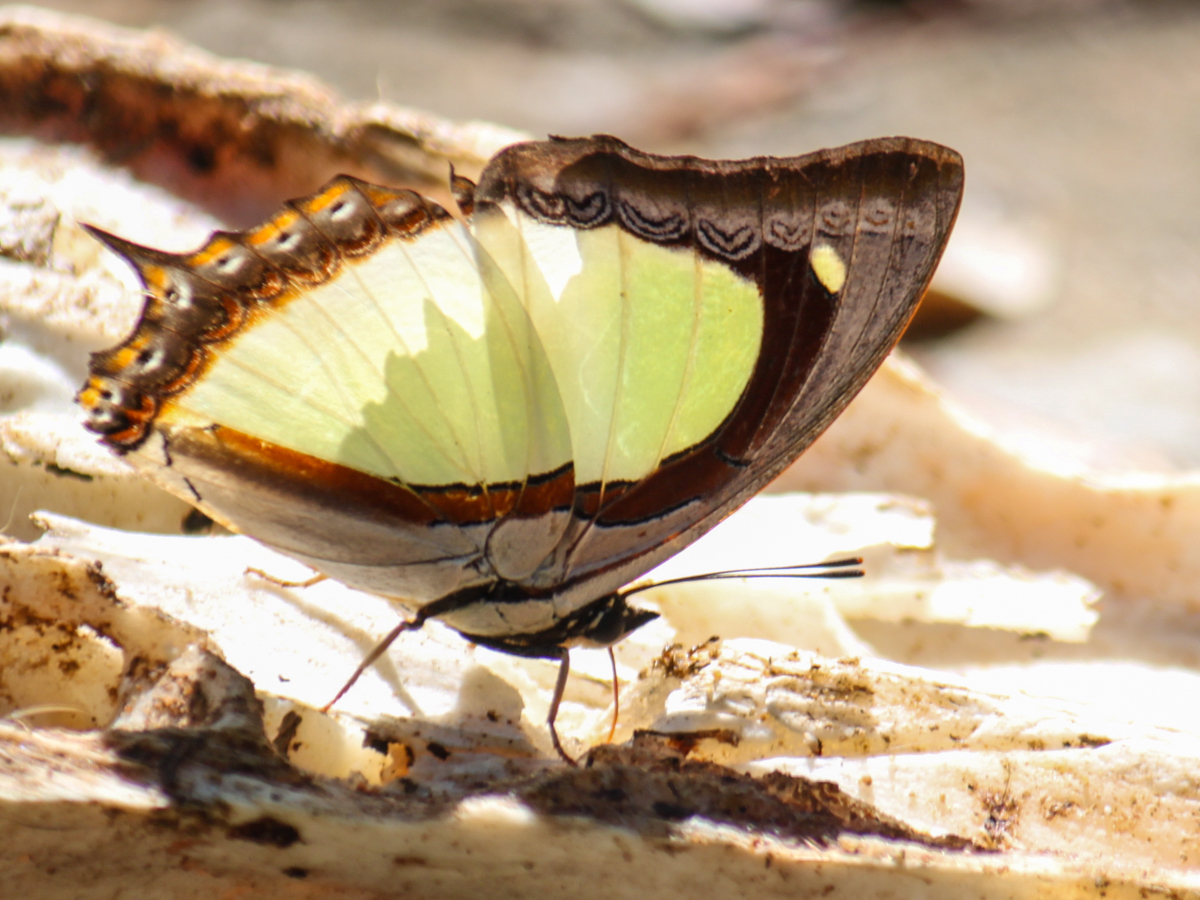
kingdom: Animalia
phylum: Arthropoda
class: Insecta
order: Lepidoptera
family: Nymphalidae
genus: Polyura
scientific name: Polyura jalysus
